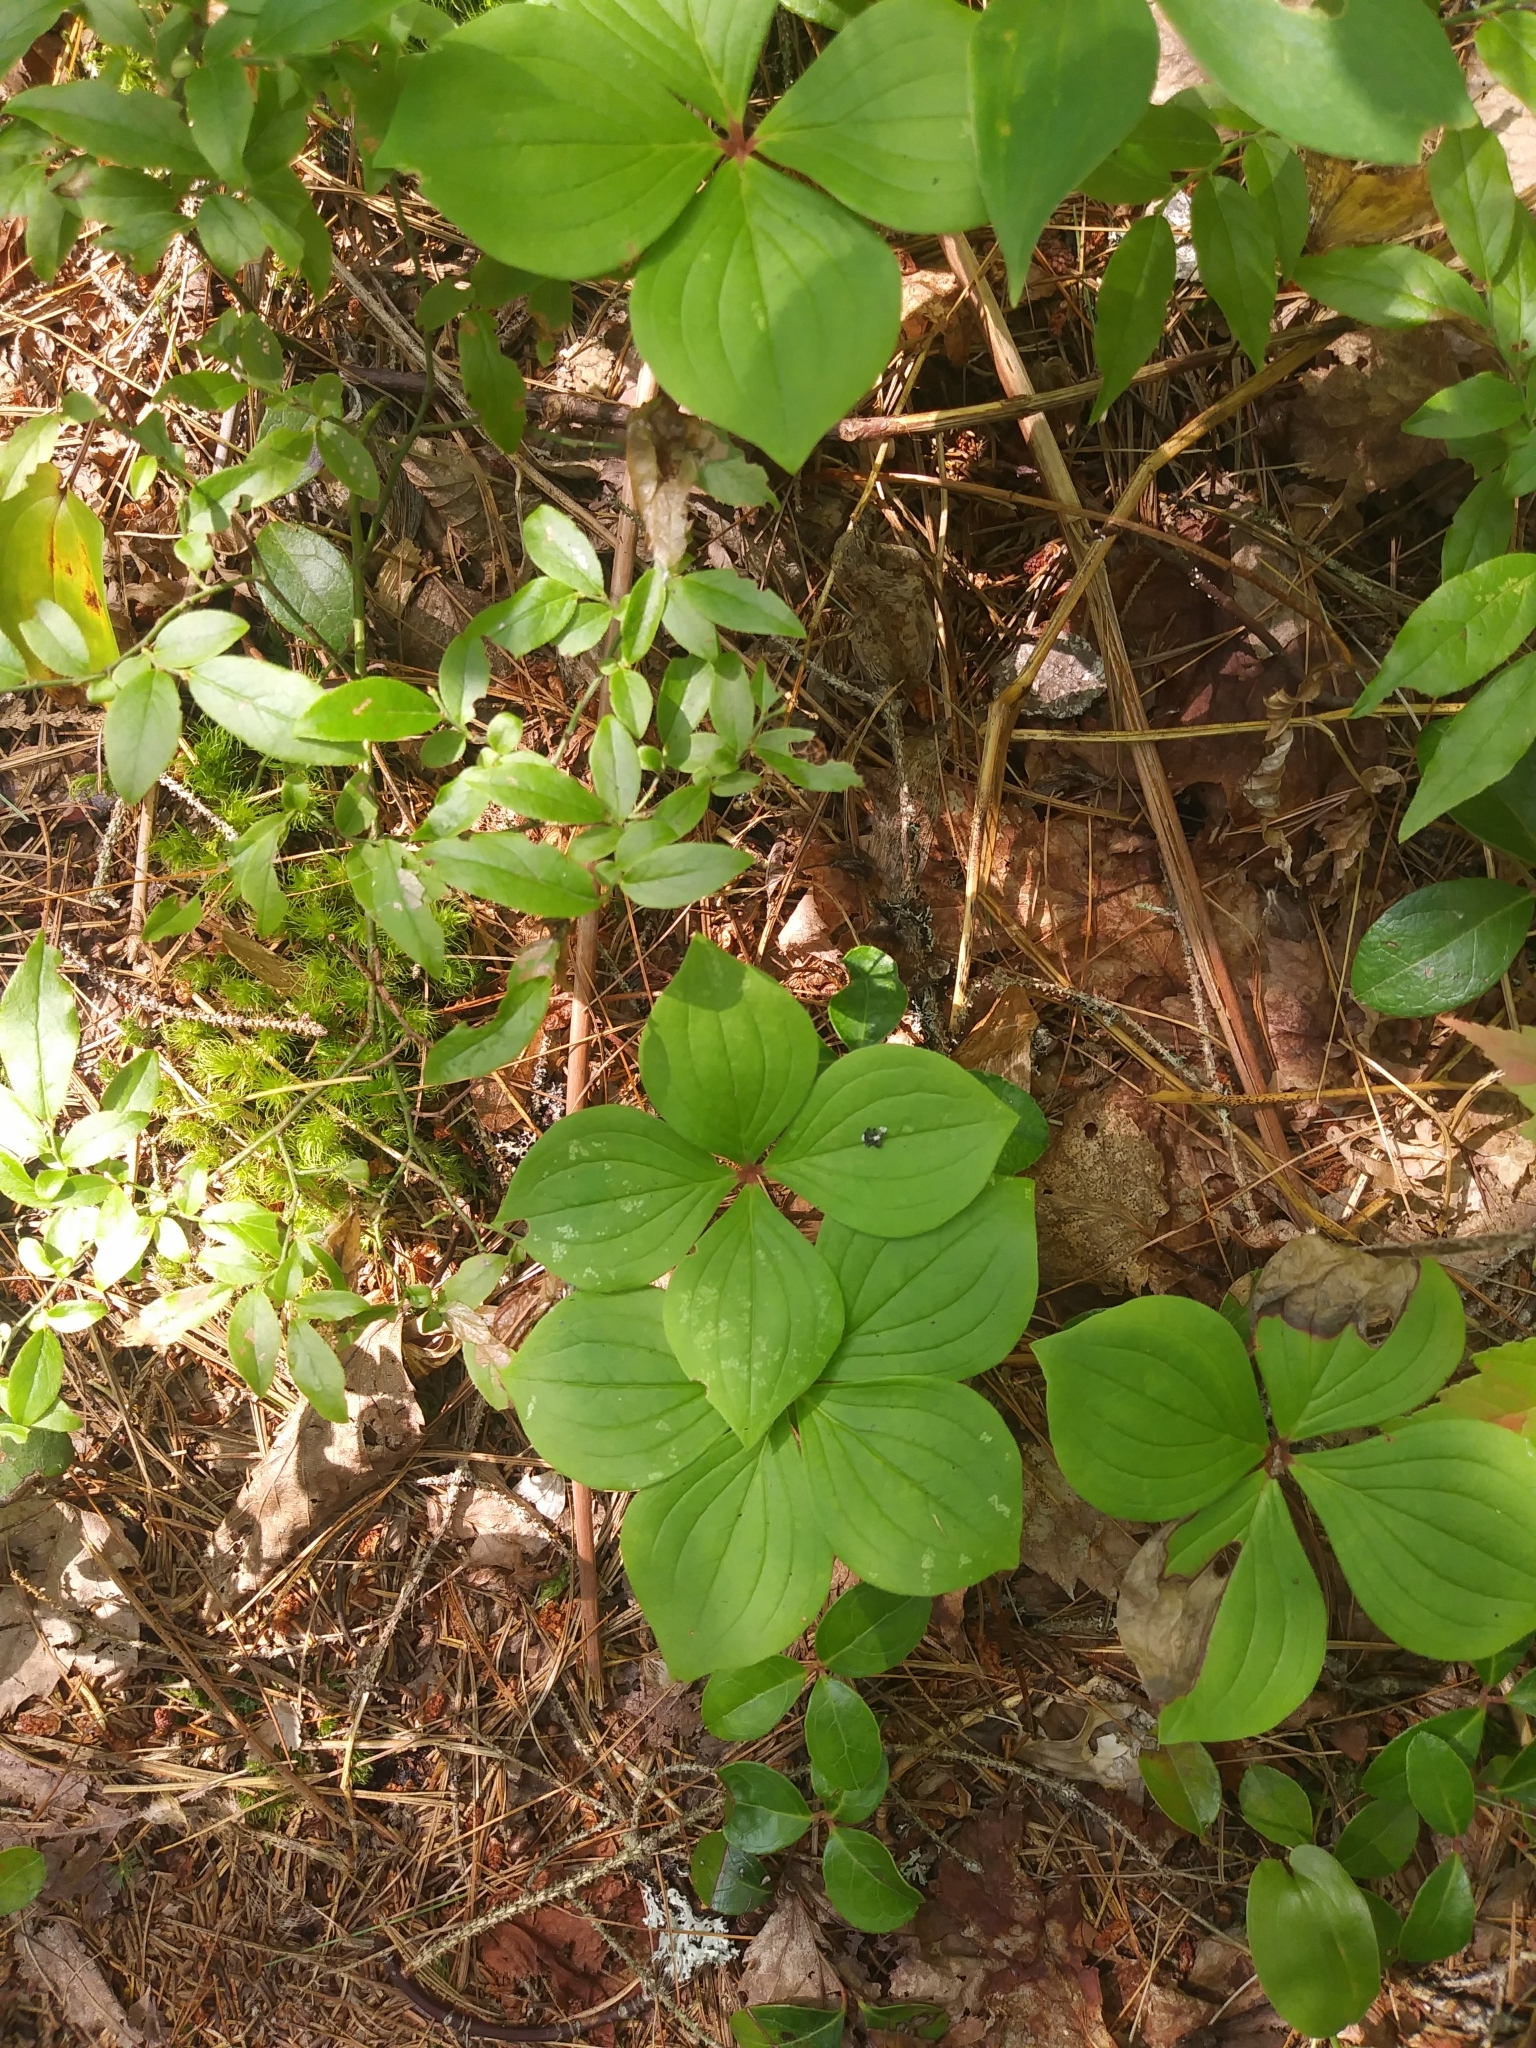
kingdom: Plantae
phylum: Tracheophyta
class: Magnoliopsida
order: Cornales
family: Cornaceae
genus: Cornus
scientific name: Cornus canadensis
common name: Creeping dogwood
